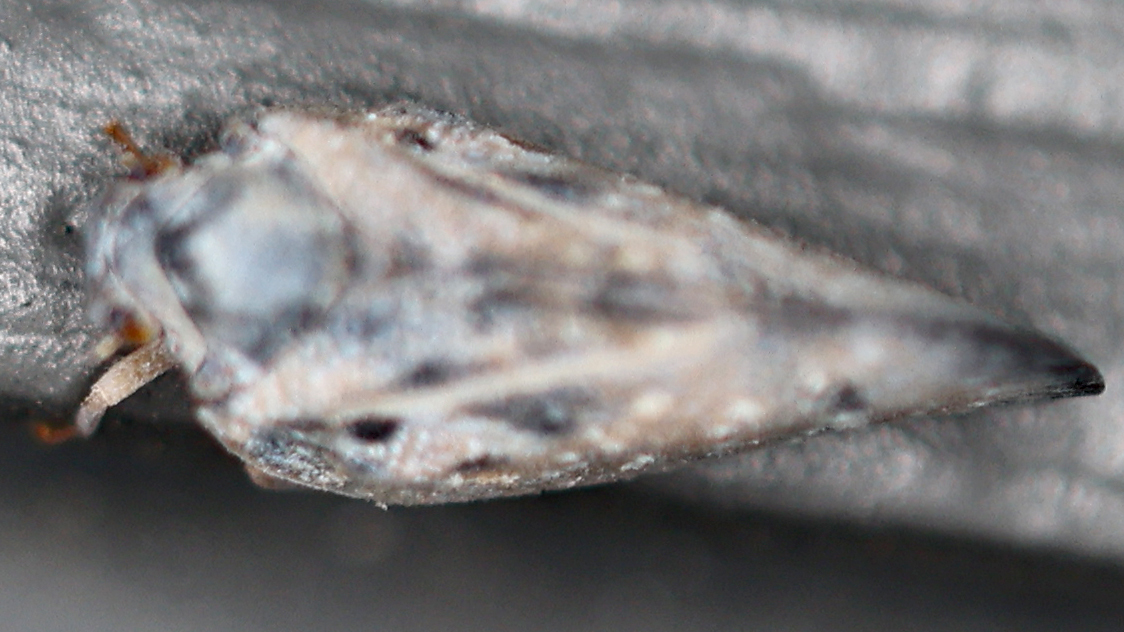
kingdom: Animalia
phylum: Arthropoda
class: Insecta
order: Hemiptera
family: Flatidae
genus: Metcalfa
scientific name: Metcalfa pruinosa
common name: Citrus flatid planthopper
